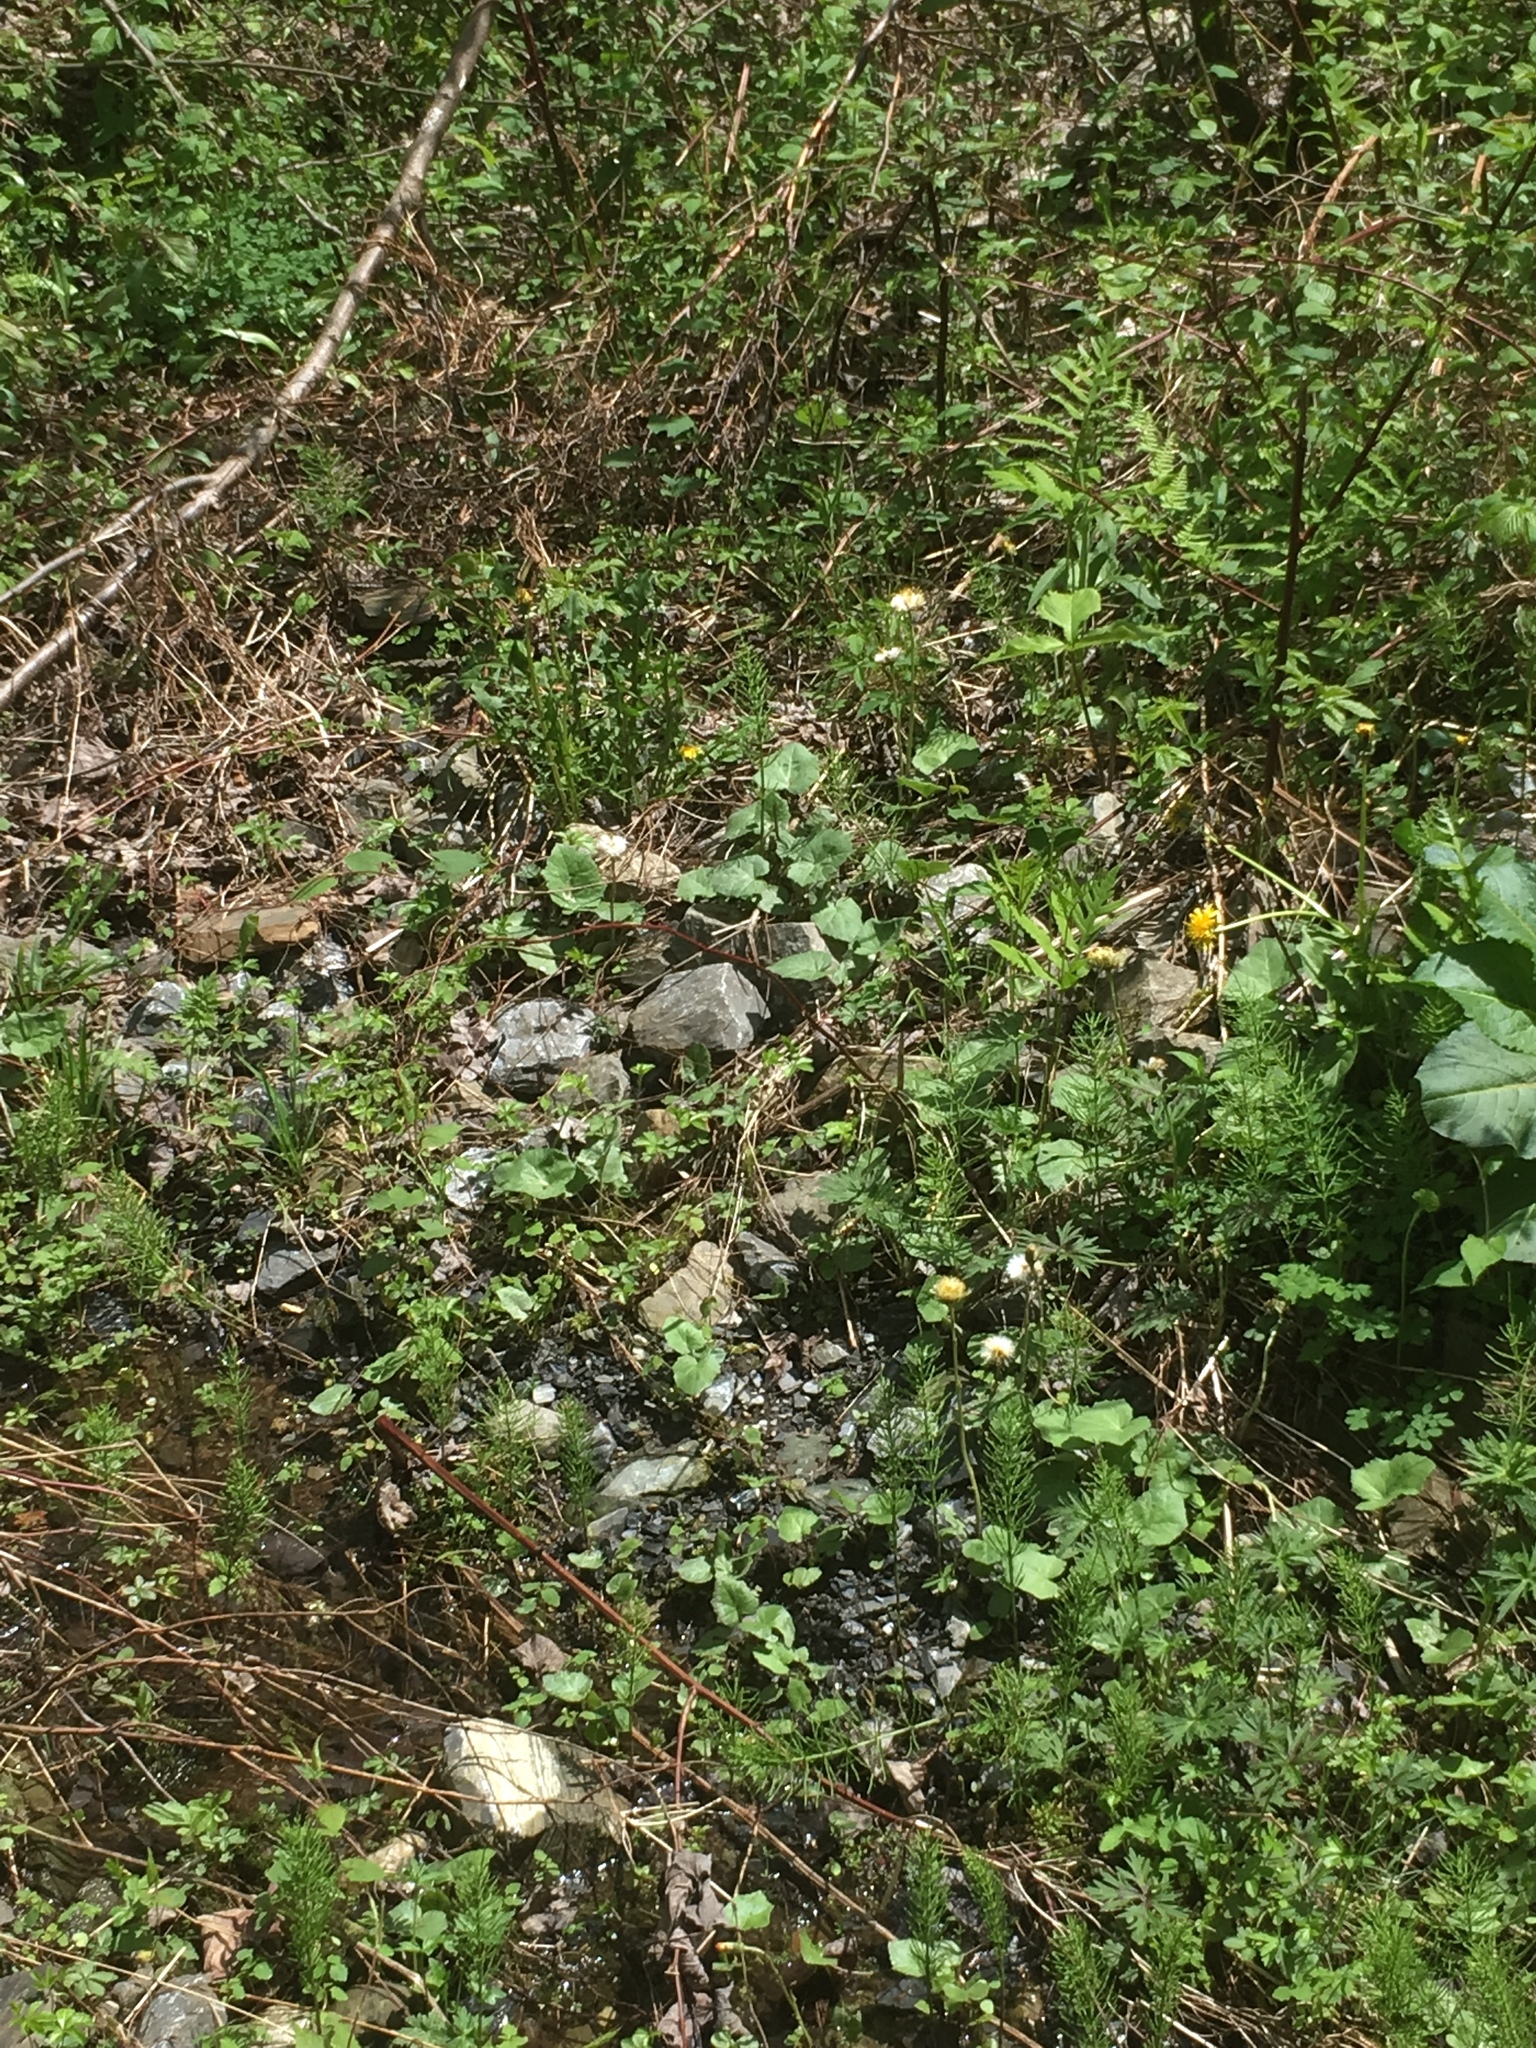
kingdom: Plantae
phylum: Tracheophyta
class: Magnoliopsida
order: Asterales
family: Asteraceae
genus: Tussilago
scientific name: Tussilago farfara
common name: Coltsfoot
